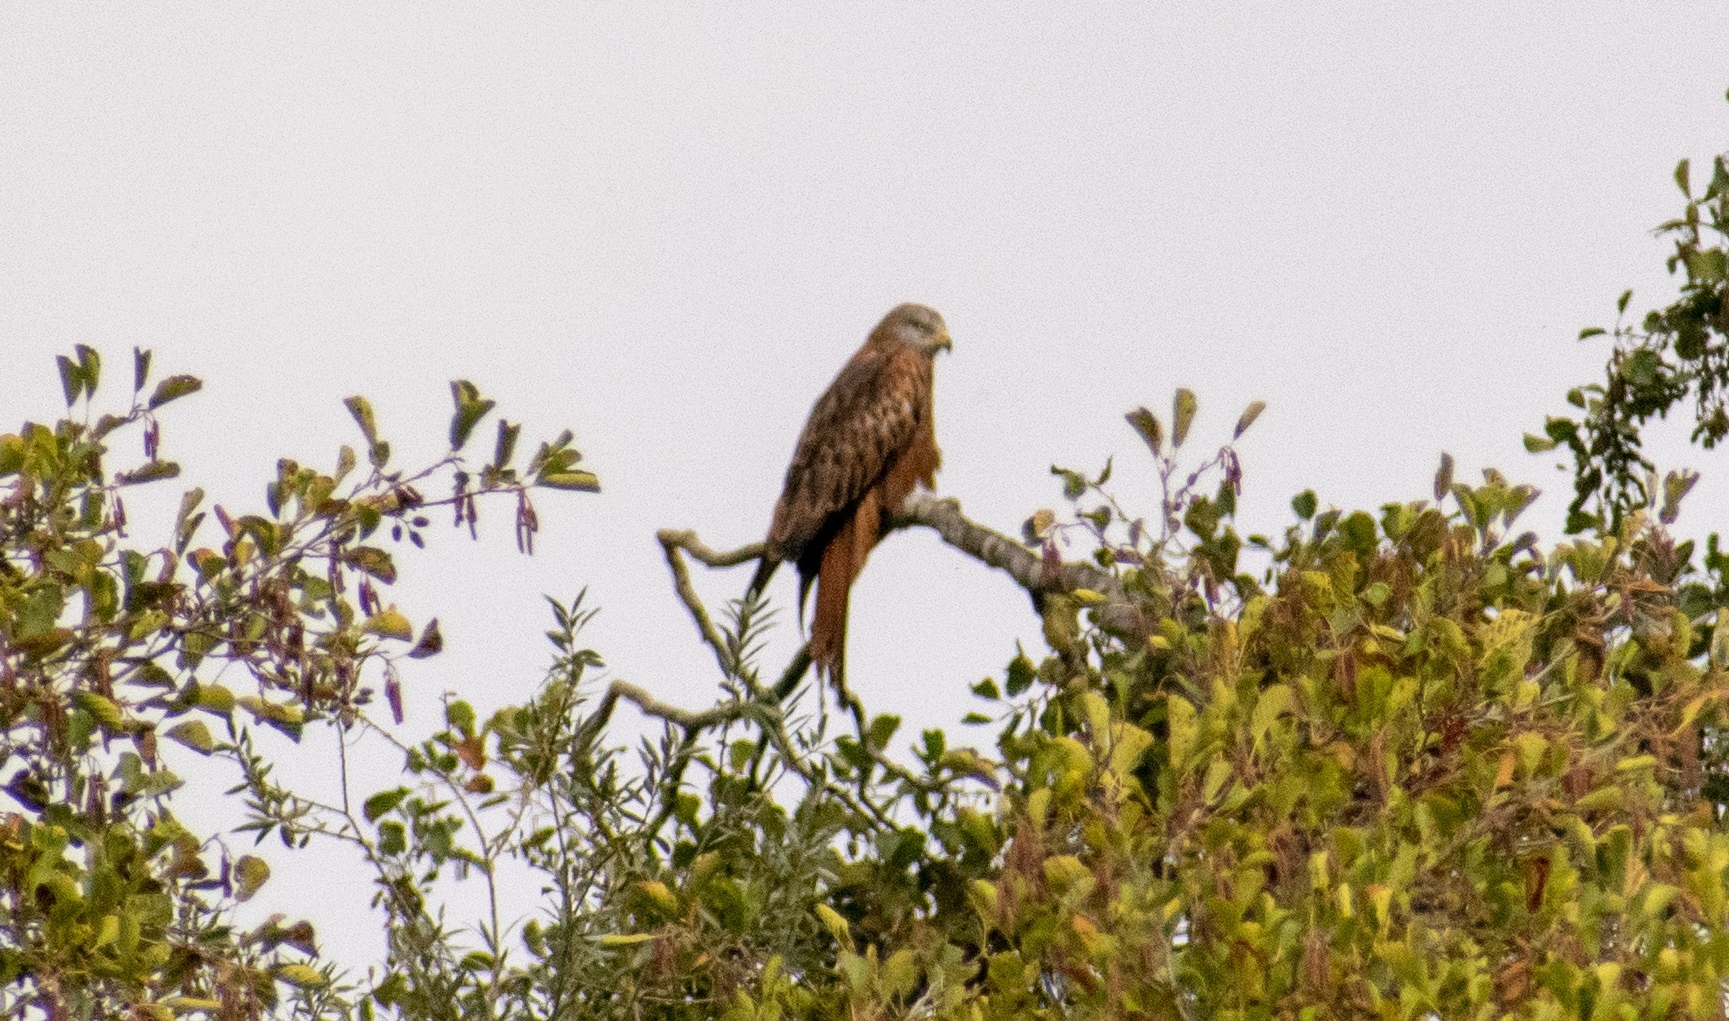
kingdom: Animalia
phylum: Chordata
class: Aves
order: Accipitriformes
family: Accipitridae
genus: Milvus
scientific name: Milvus milvus
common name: Red kite
